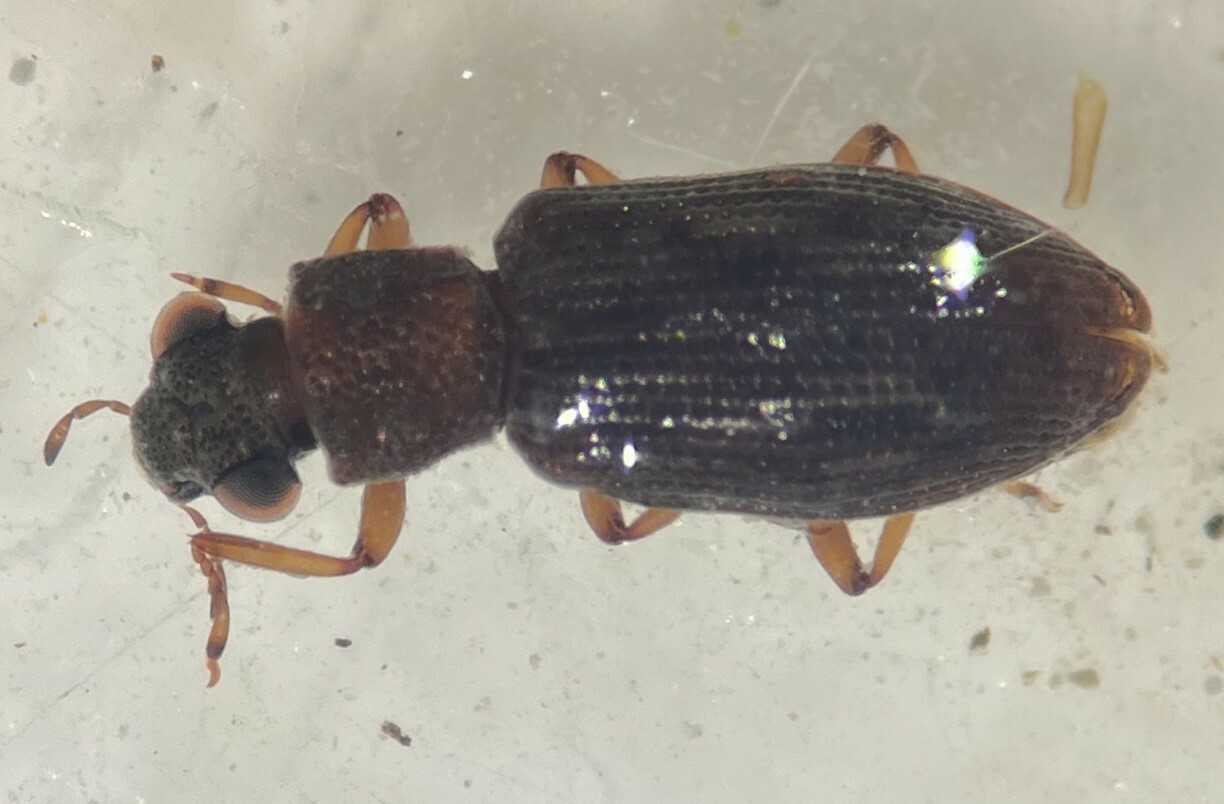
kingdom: Animalia
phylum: Arthropoda
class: Insecta
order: Coleoptera
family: Hydrochidae
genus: Hydrochus
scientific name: Hydrochus vagus
